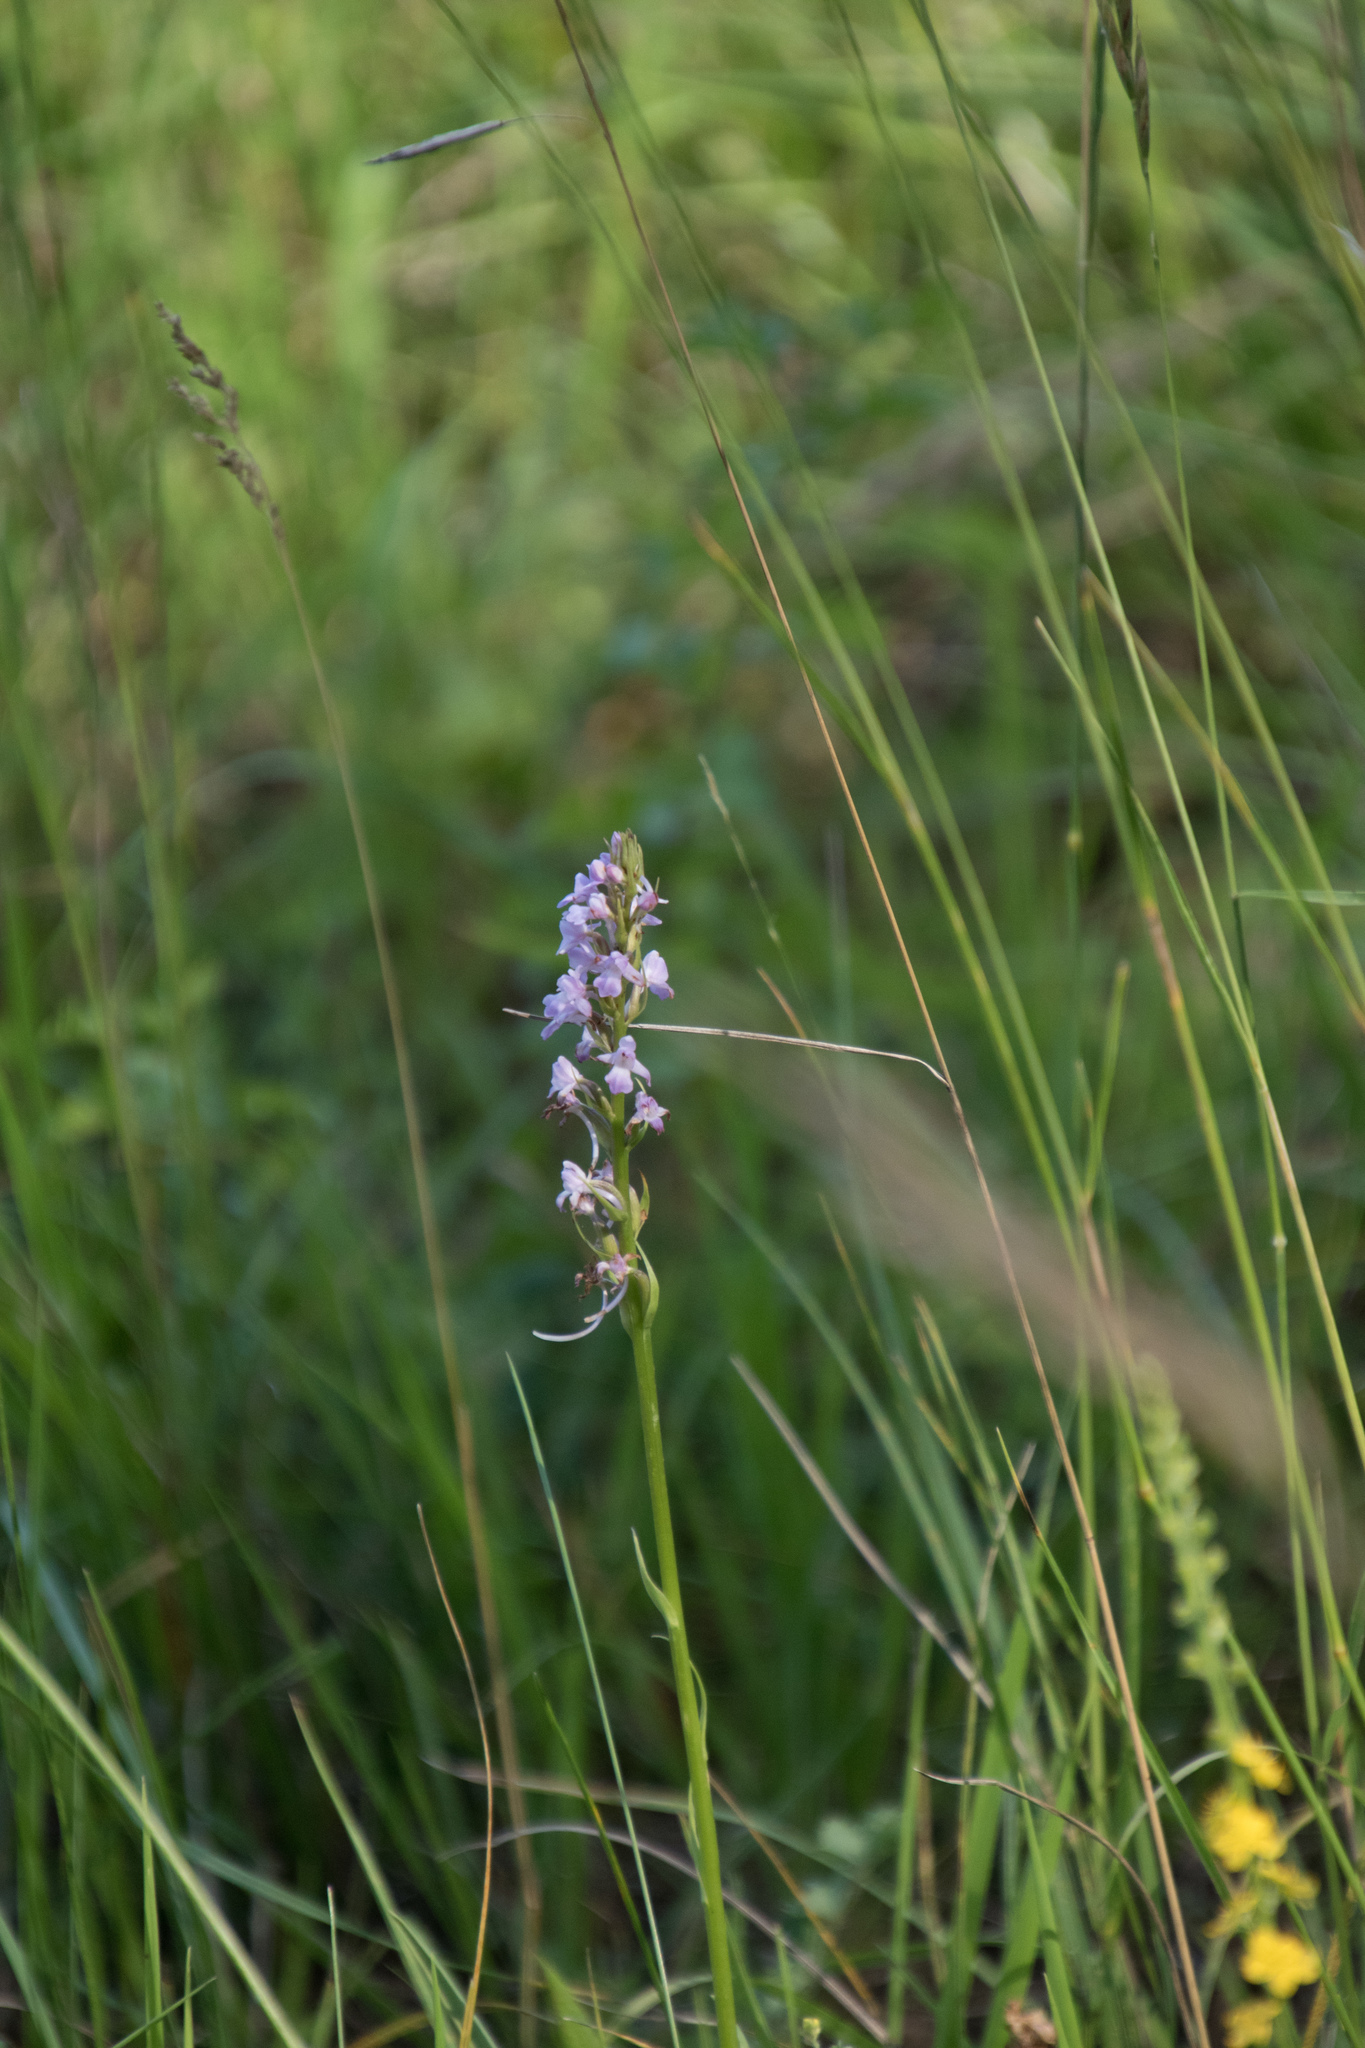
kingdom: Plantae
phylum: Tracheophyta
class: Liliopsida
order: Asparagales
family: Orchidaceae
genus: Gymnadenia
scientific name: Gymnadenia conopsea
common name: Fragrant orchid
